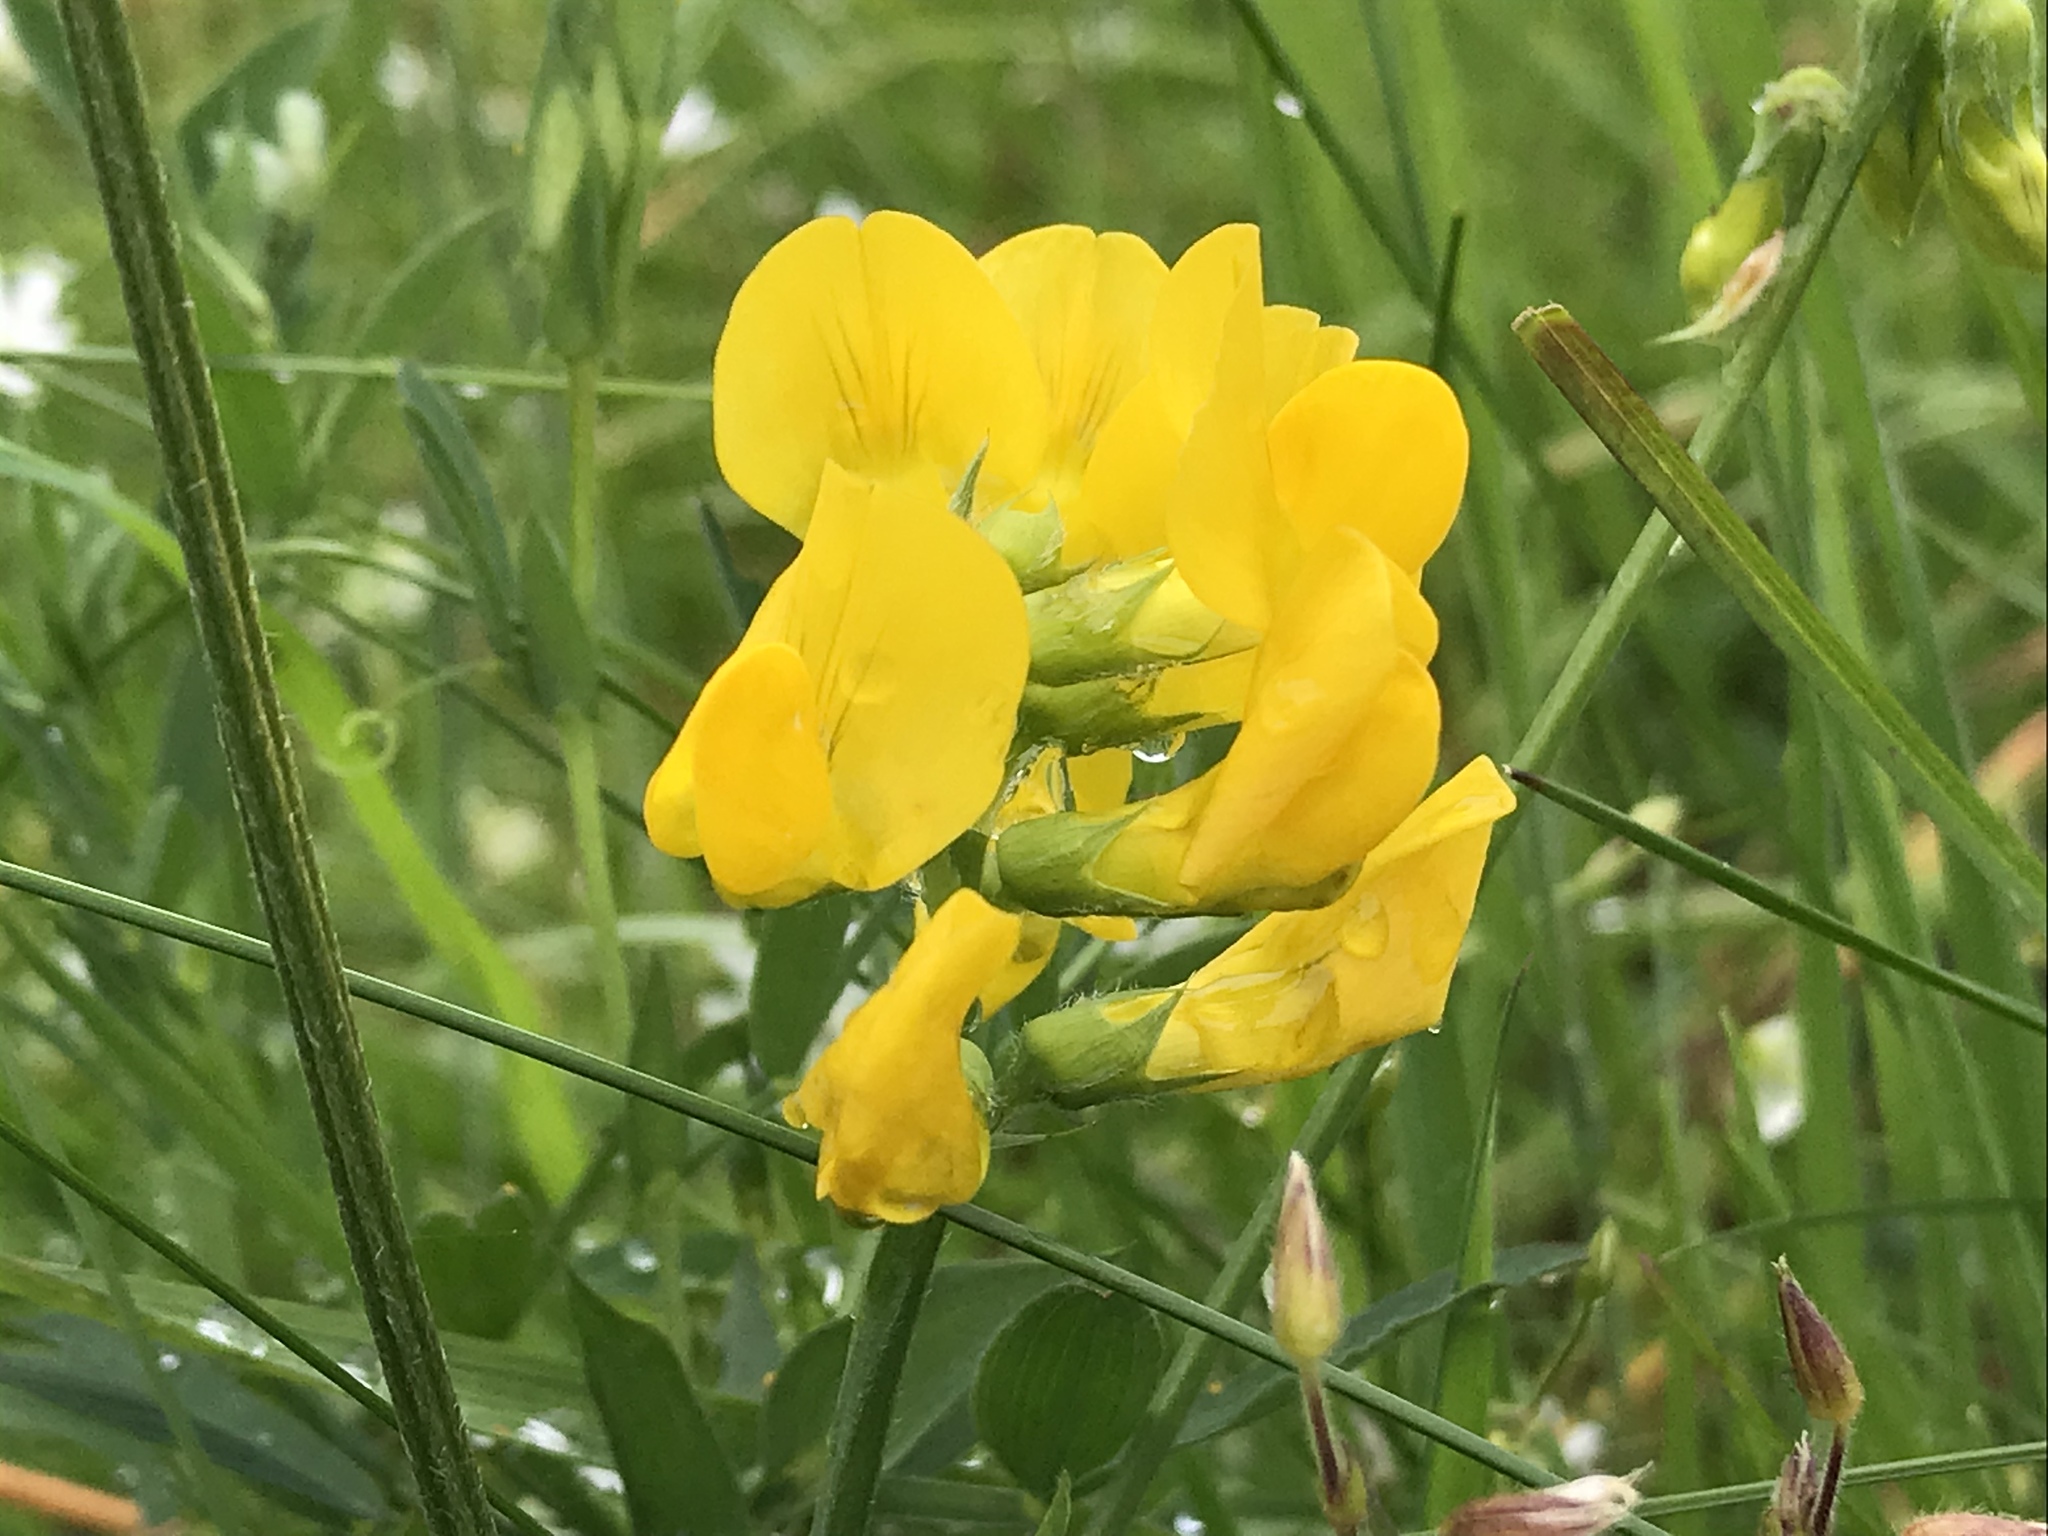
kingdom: Plantae
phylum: Tracheophyta
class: Magnoliopsida
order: Fabales
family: Fabaceae
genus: Lathyrus
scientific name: Lathyrus pratensis
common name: Meadow vetchling
